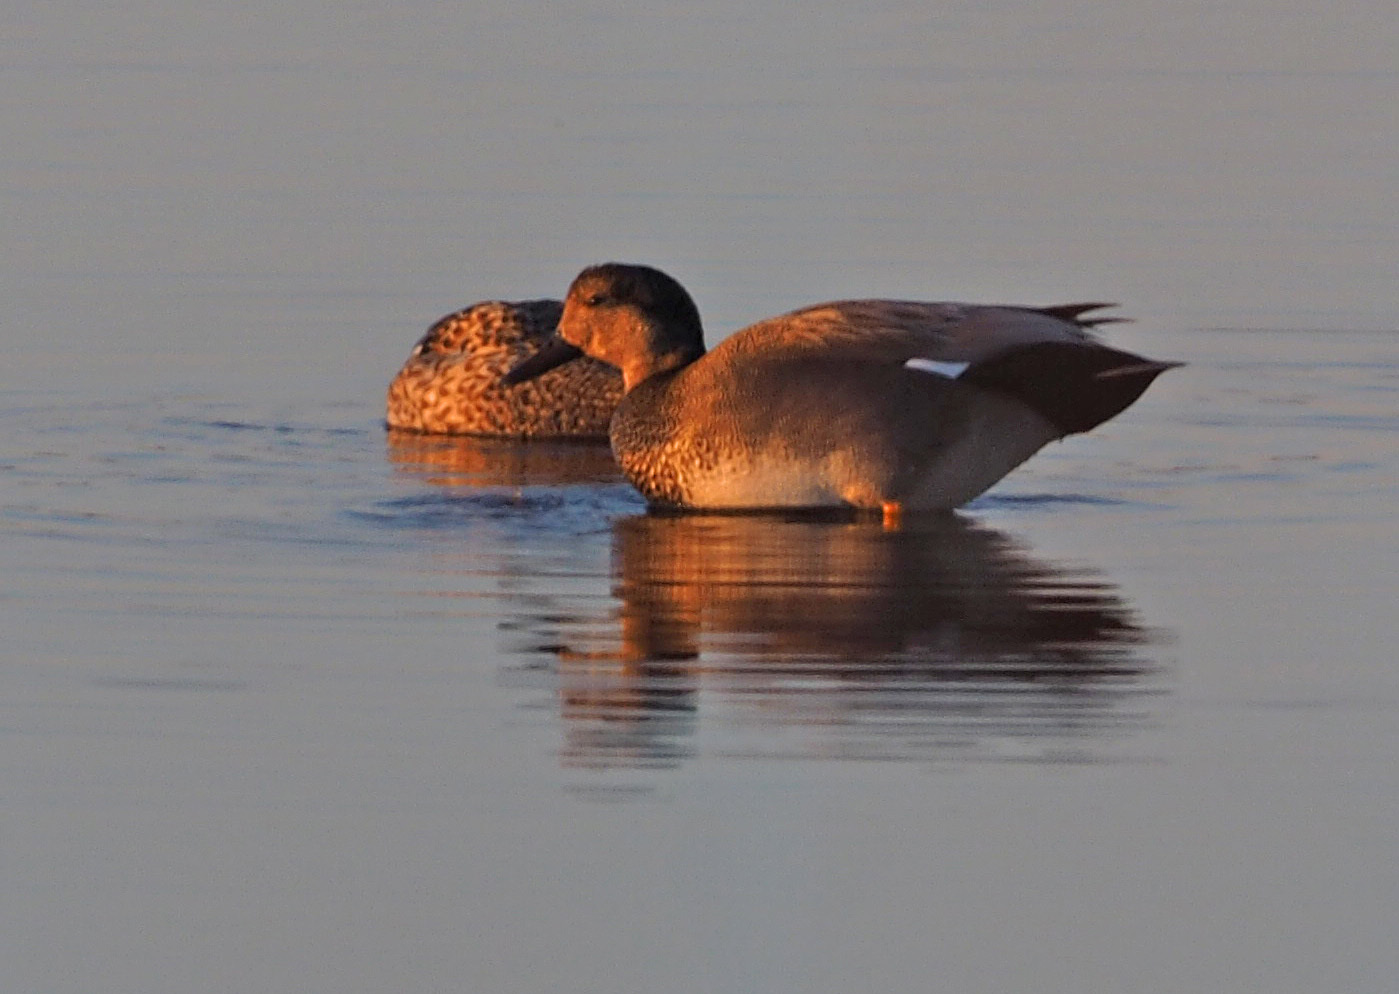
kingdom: Animalia
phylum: Chordata
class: Aves
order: Anseriformes
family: Anatidae
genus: Mareca
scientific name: Mareca strepera
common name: Gadwall
